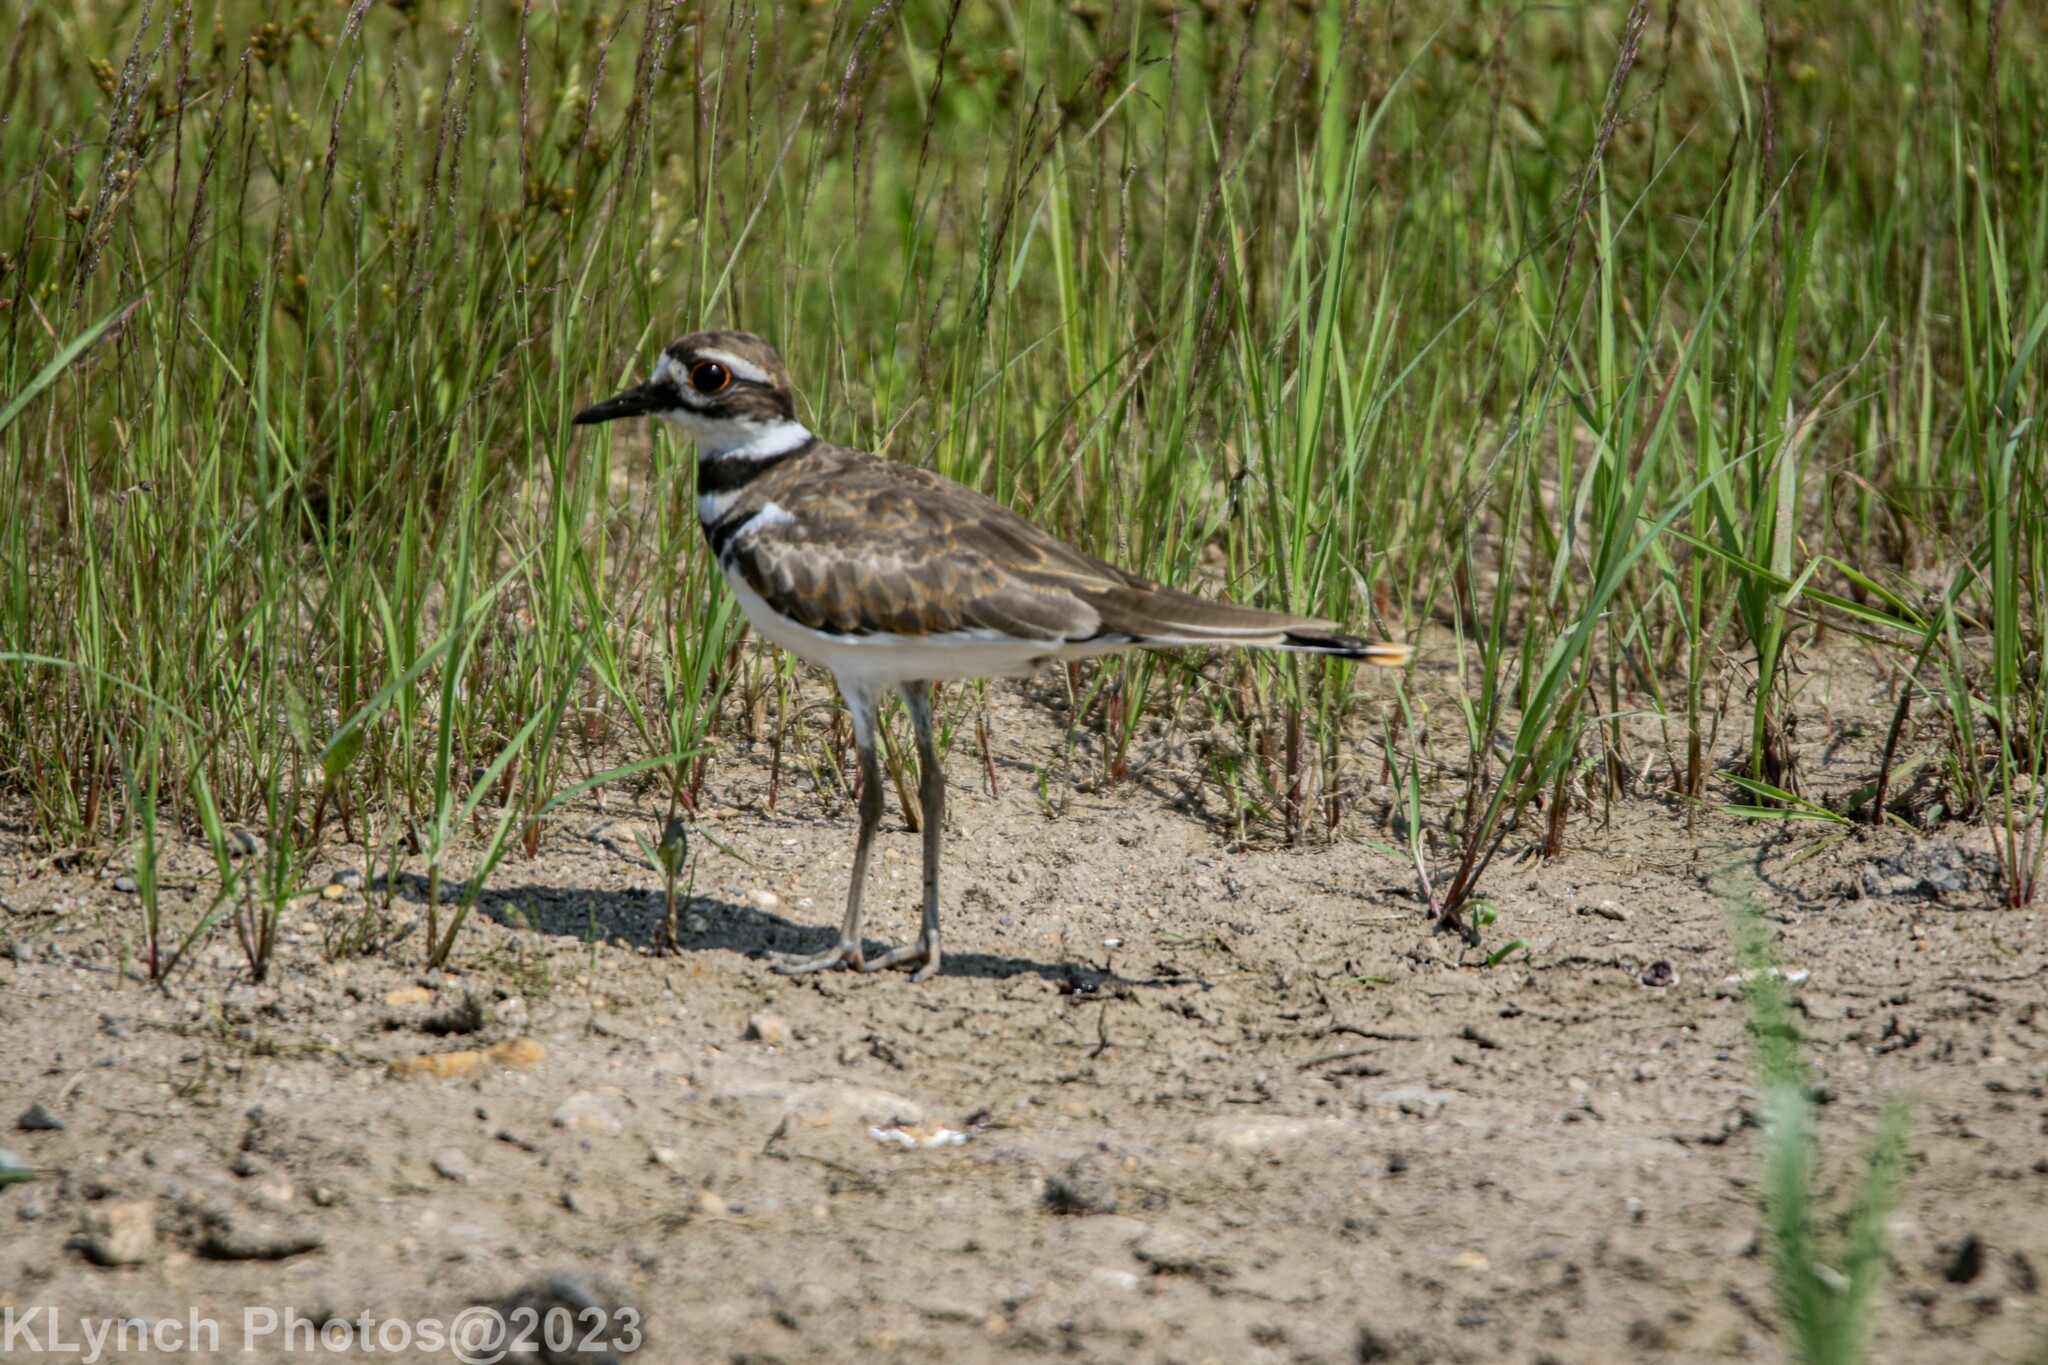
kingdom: Animalia
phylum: Chordata
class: Aves
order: Charadriiformes
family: Charadriidae
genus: Charadrius
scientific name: Charadrius vociferus
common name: Killdeer
